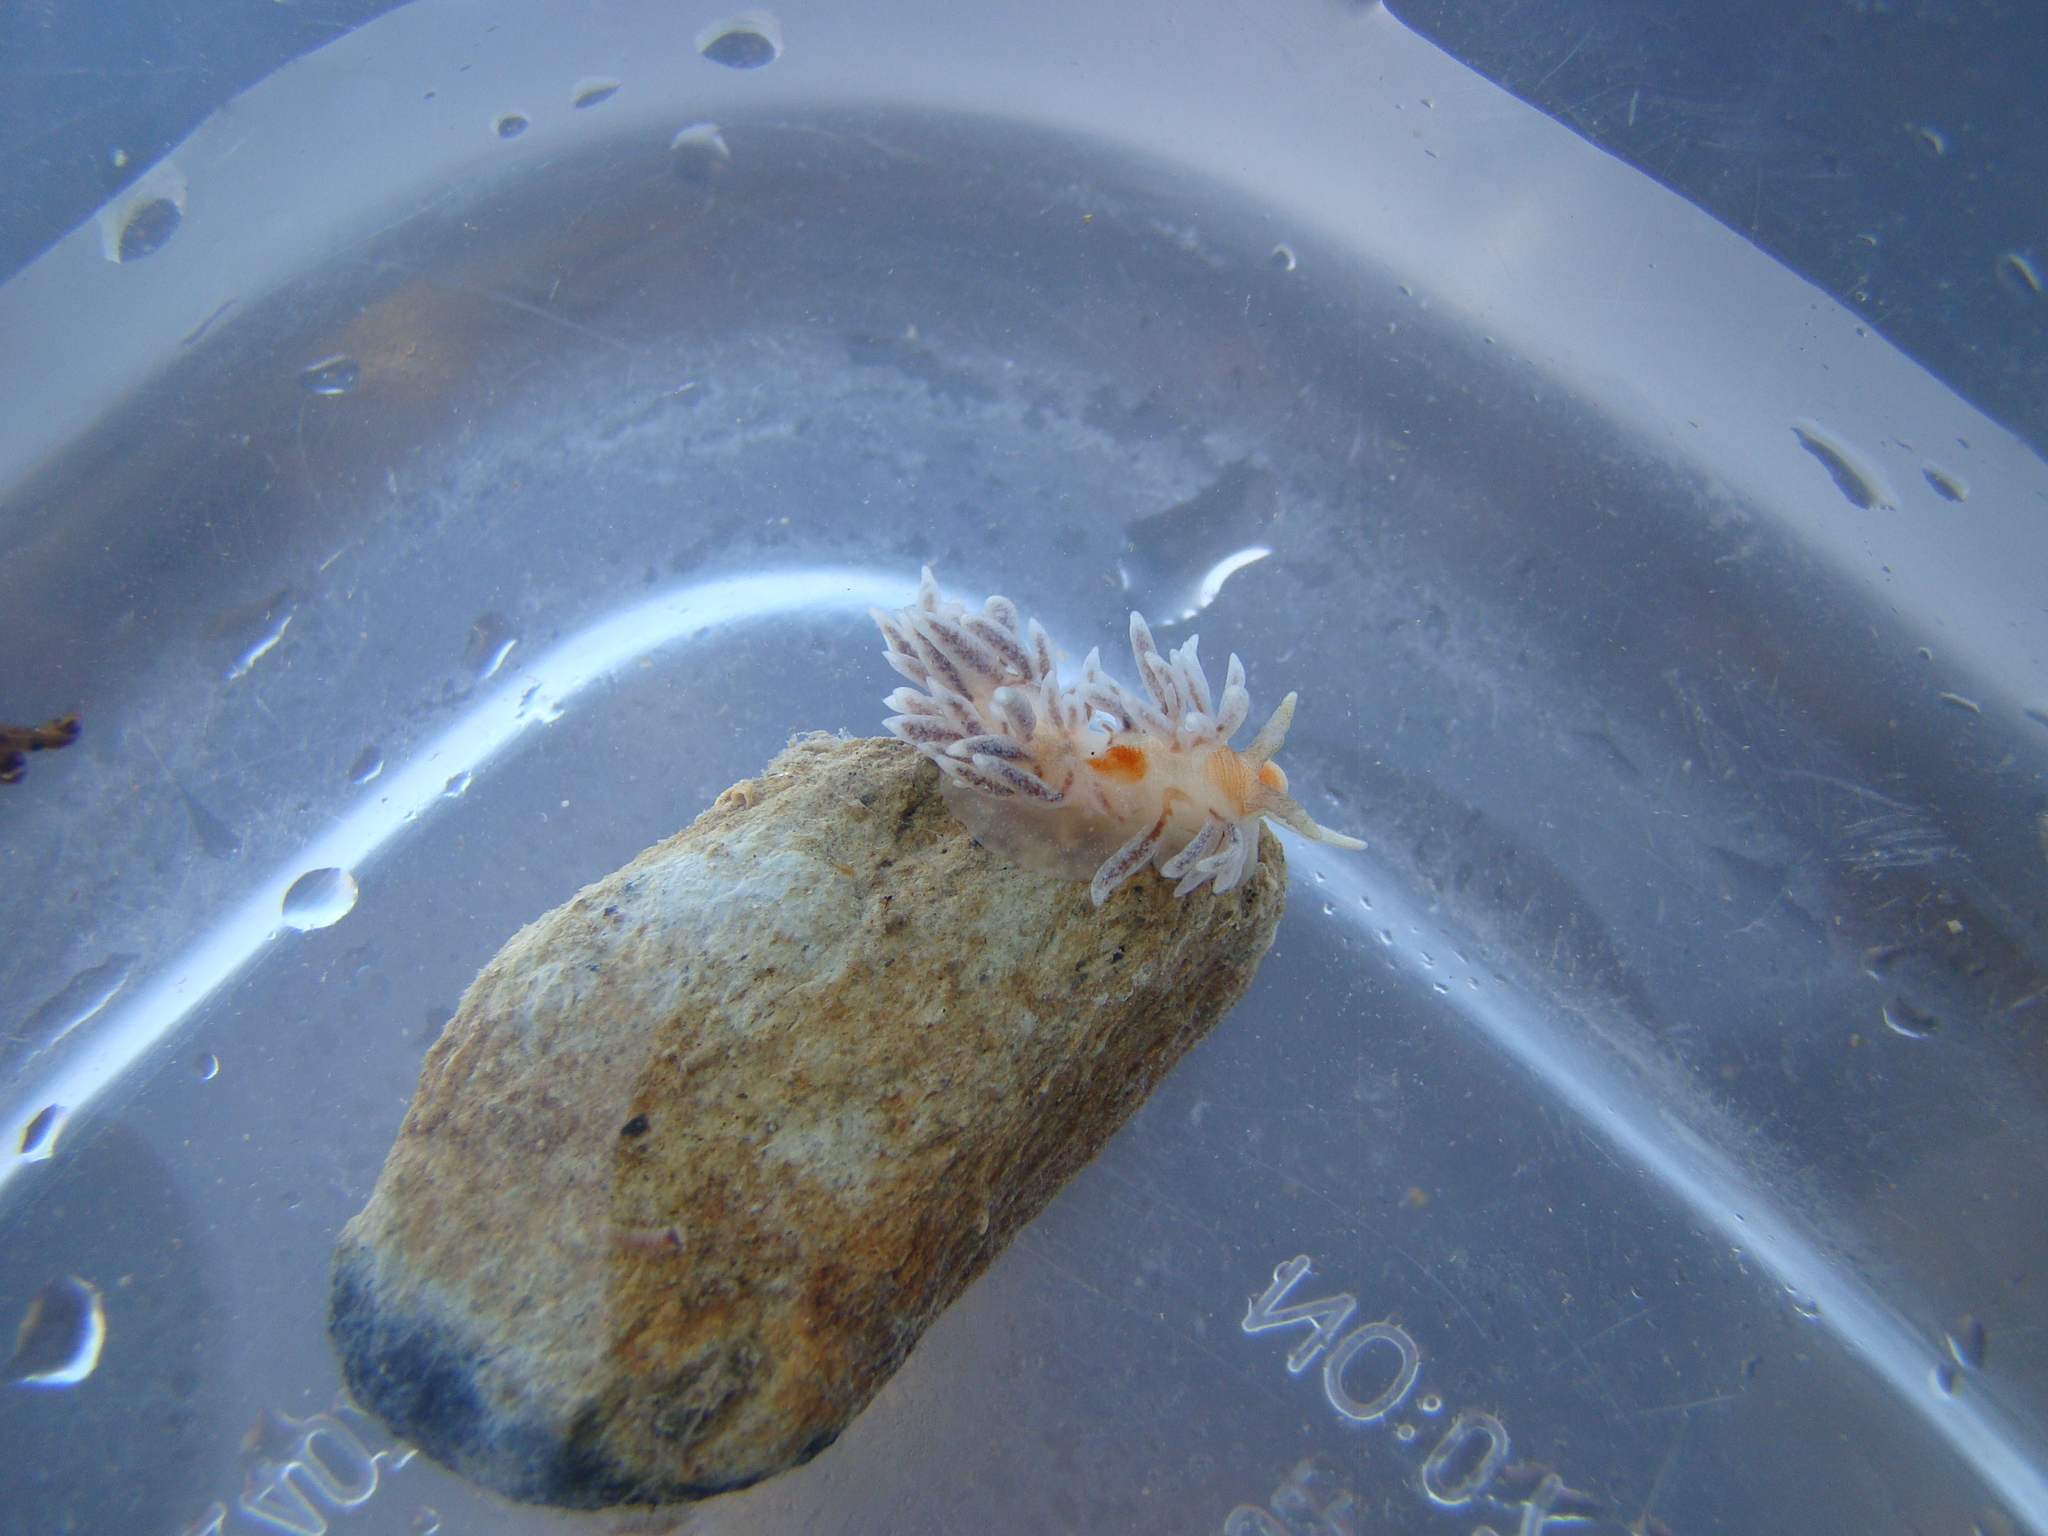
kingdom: Animalia
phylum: Mollusca
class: Gastropoda
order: Nudibranchia
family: Aeolidiidae
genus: Baeolidia
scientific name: Baeolidia faustina
